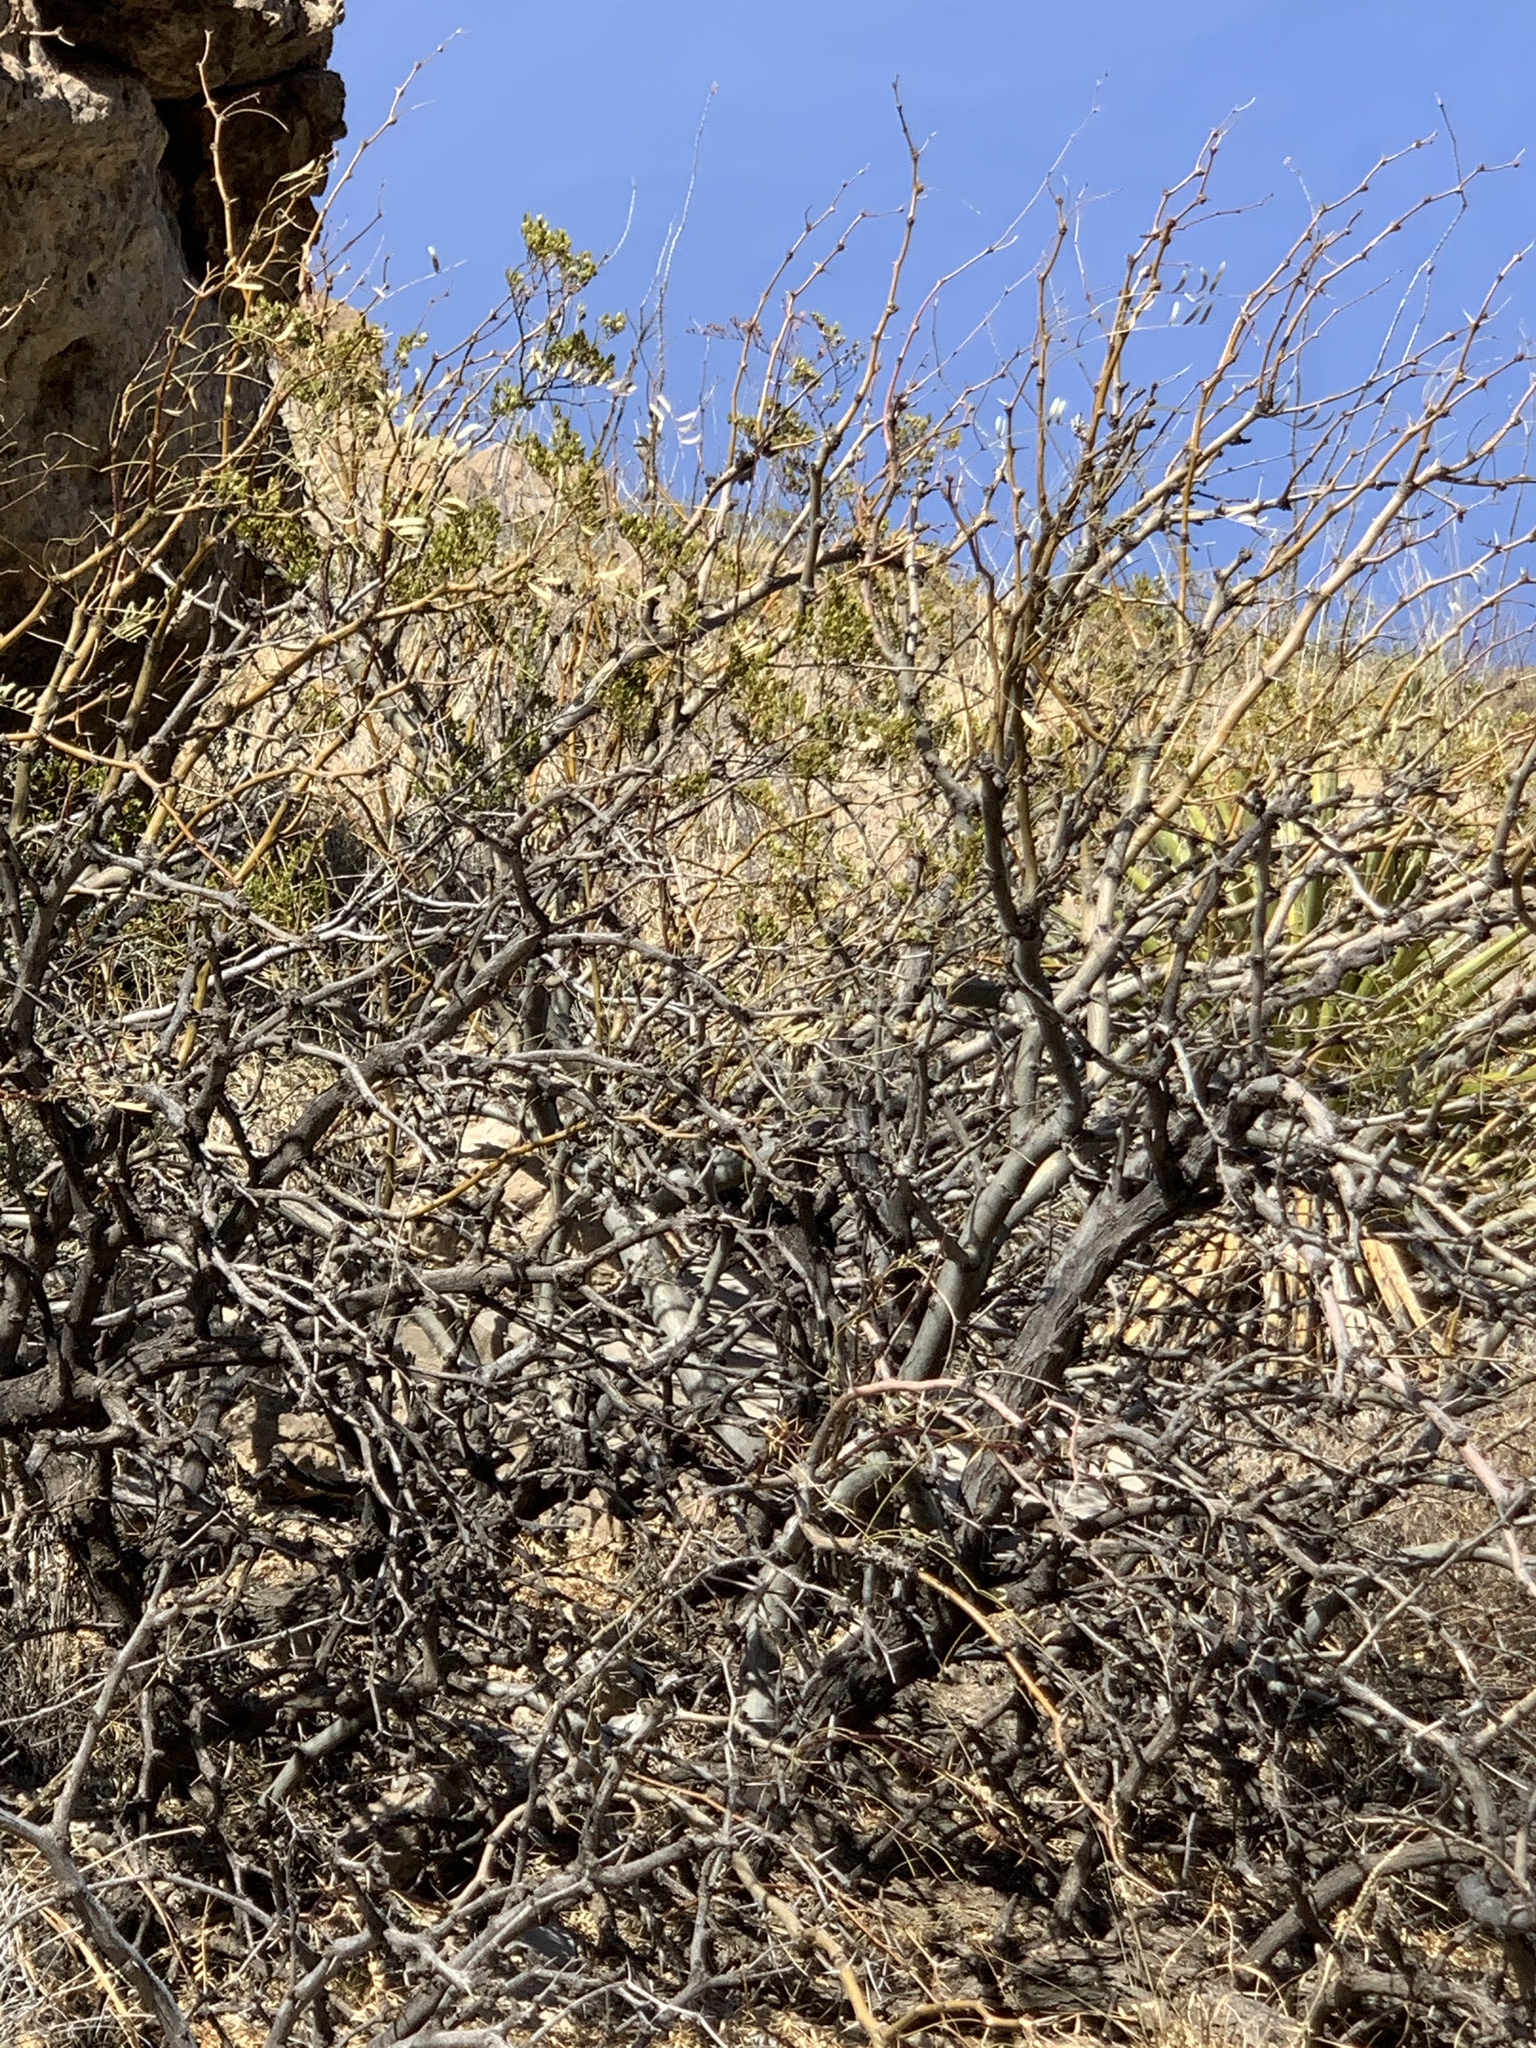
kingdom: Plantae
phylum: Tracheophyta
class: Magnoliopsida
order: Fabales
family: Fabaceae
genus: Prosopis
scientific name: Prosopis glandulosa
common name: Honey mesquite
